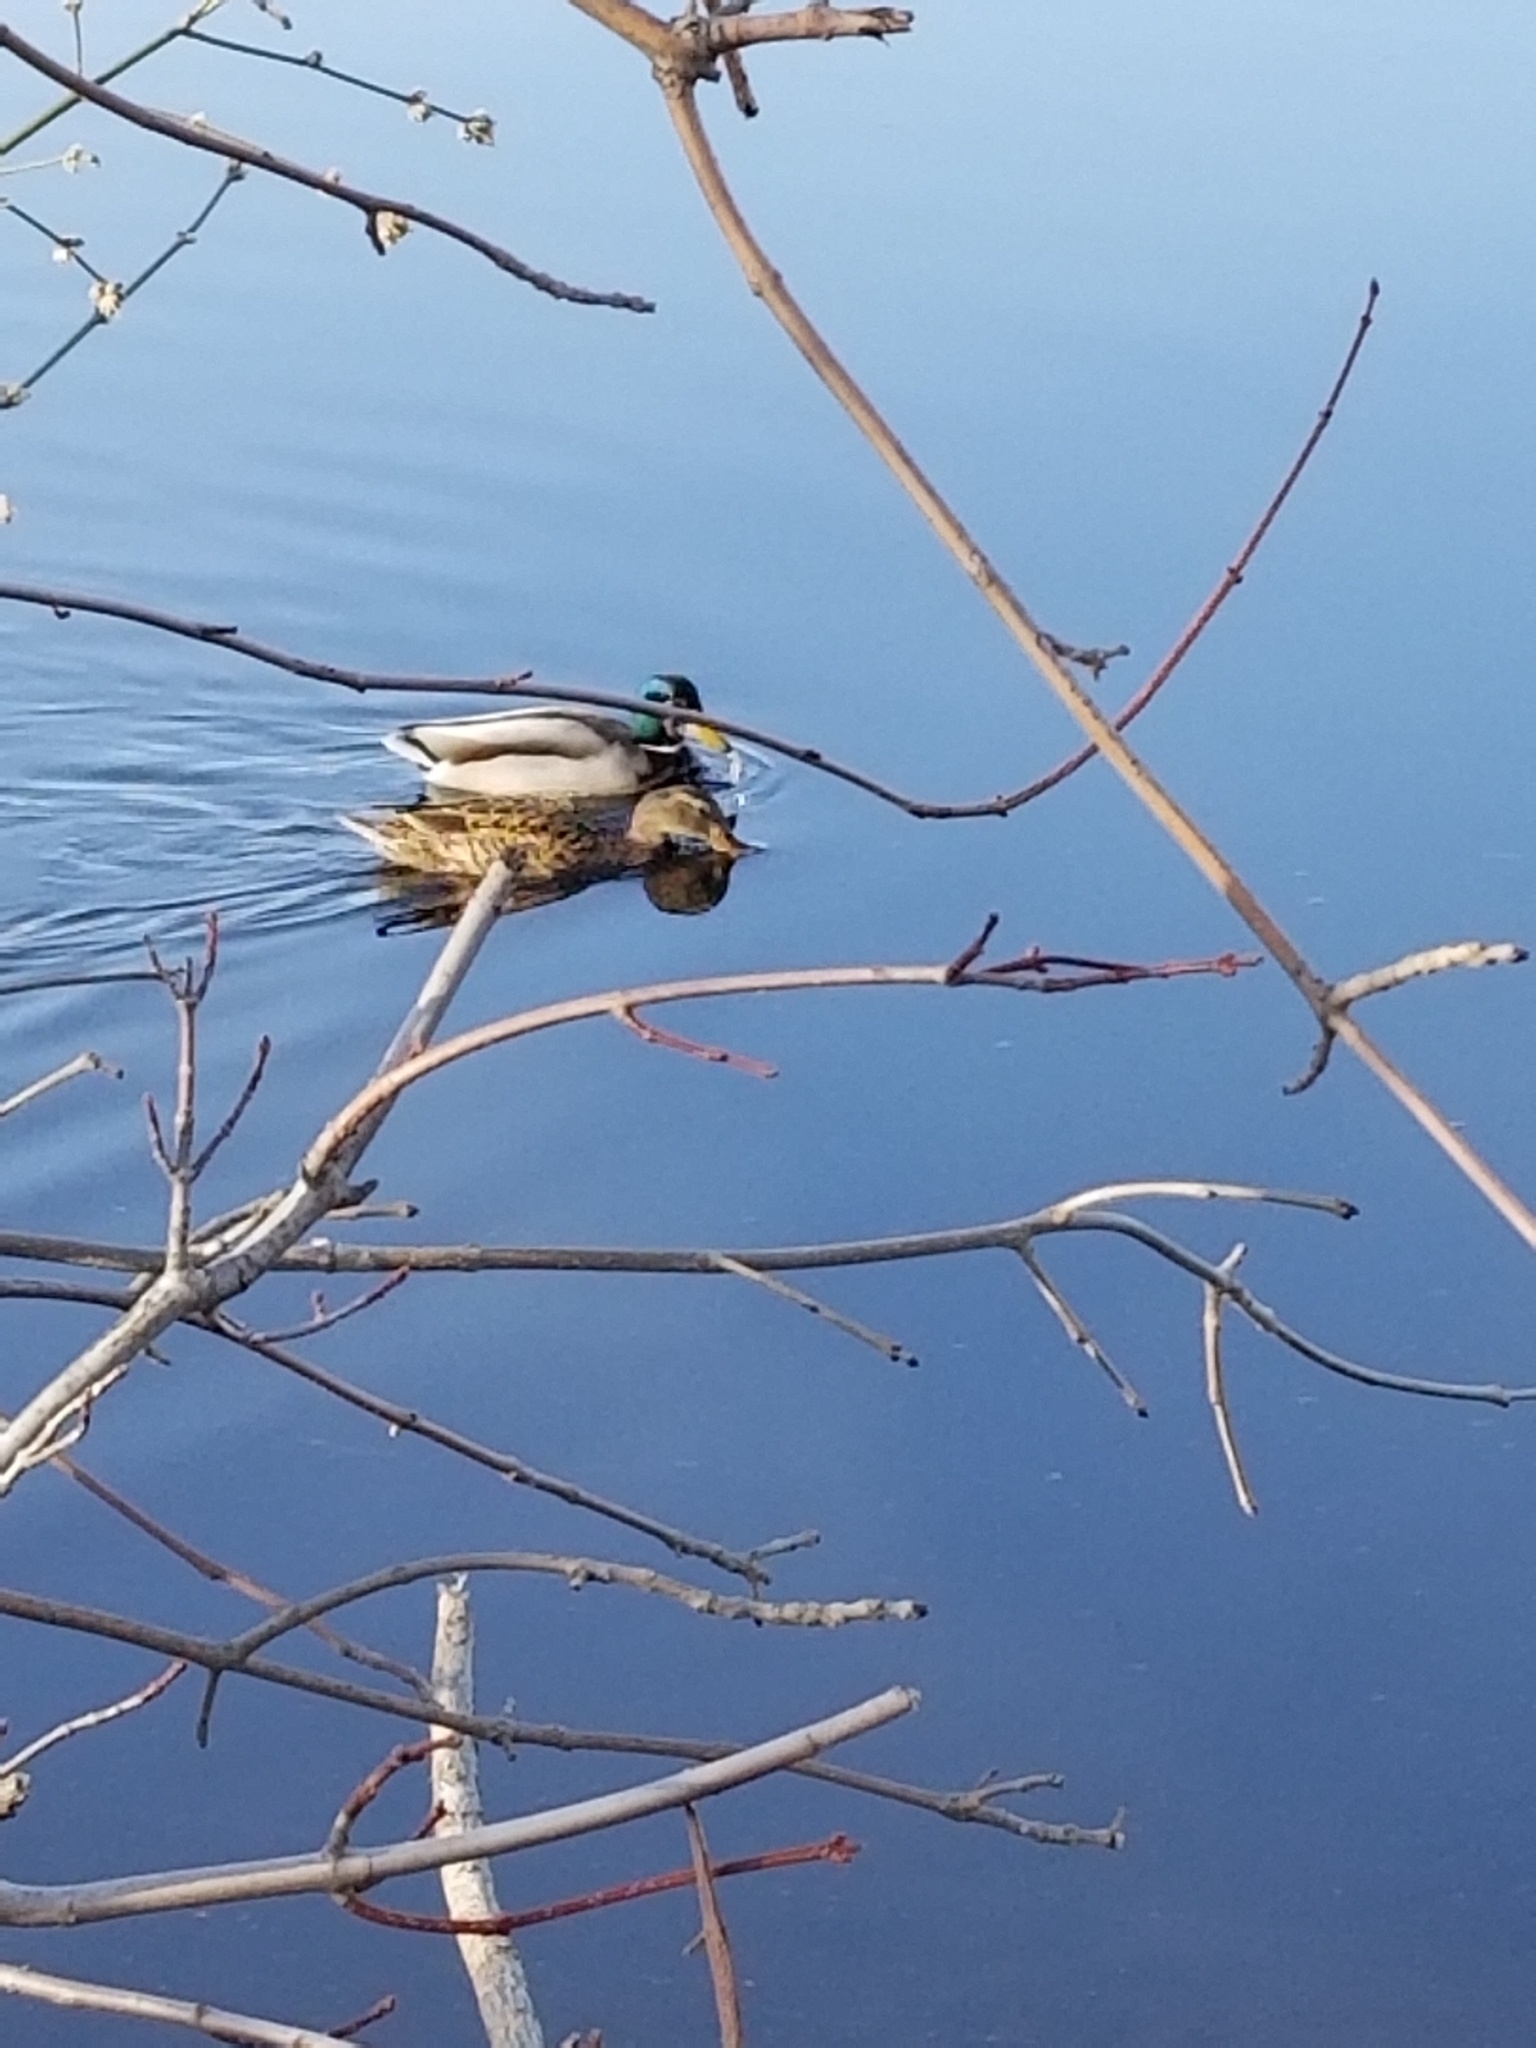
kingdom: Animalia
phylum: Chordata
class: Aves
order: Anseriformes
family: Anatidae
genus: Anas
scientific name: Anas platyrhynchos
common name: Mallard
